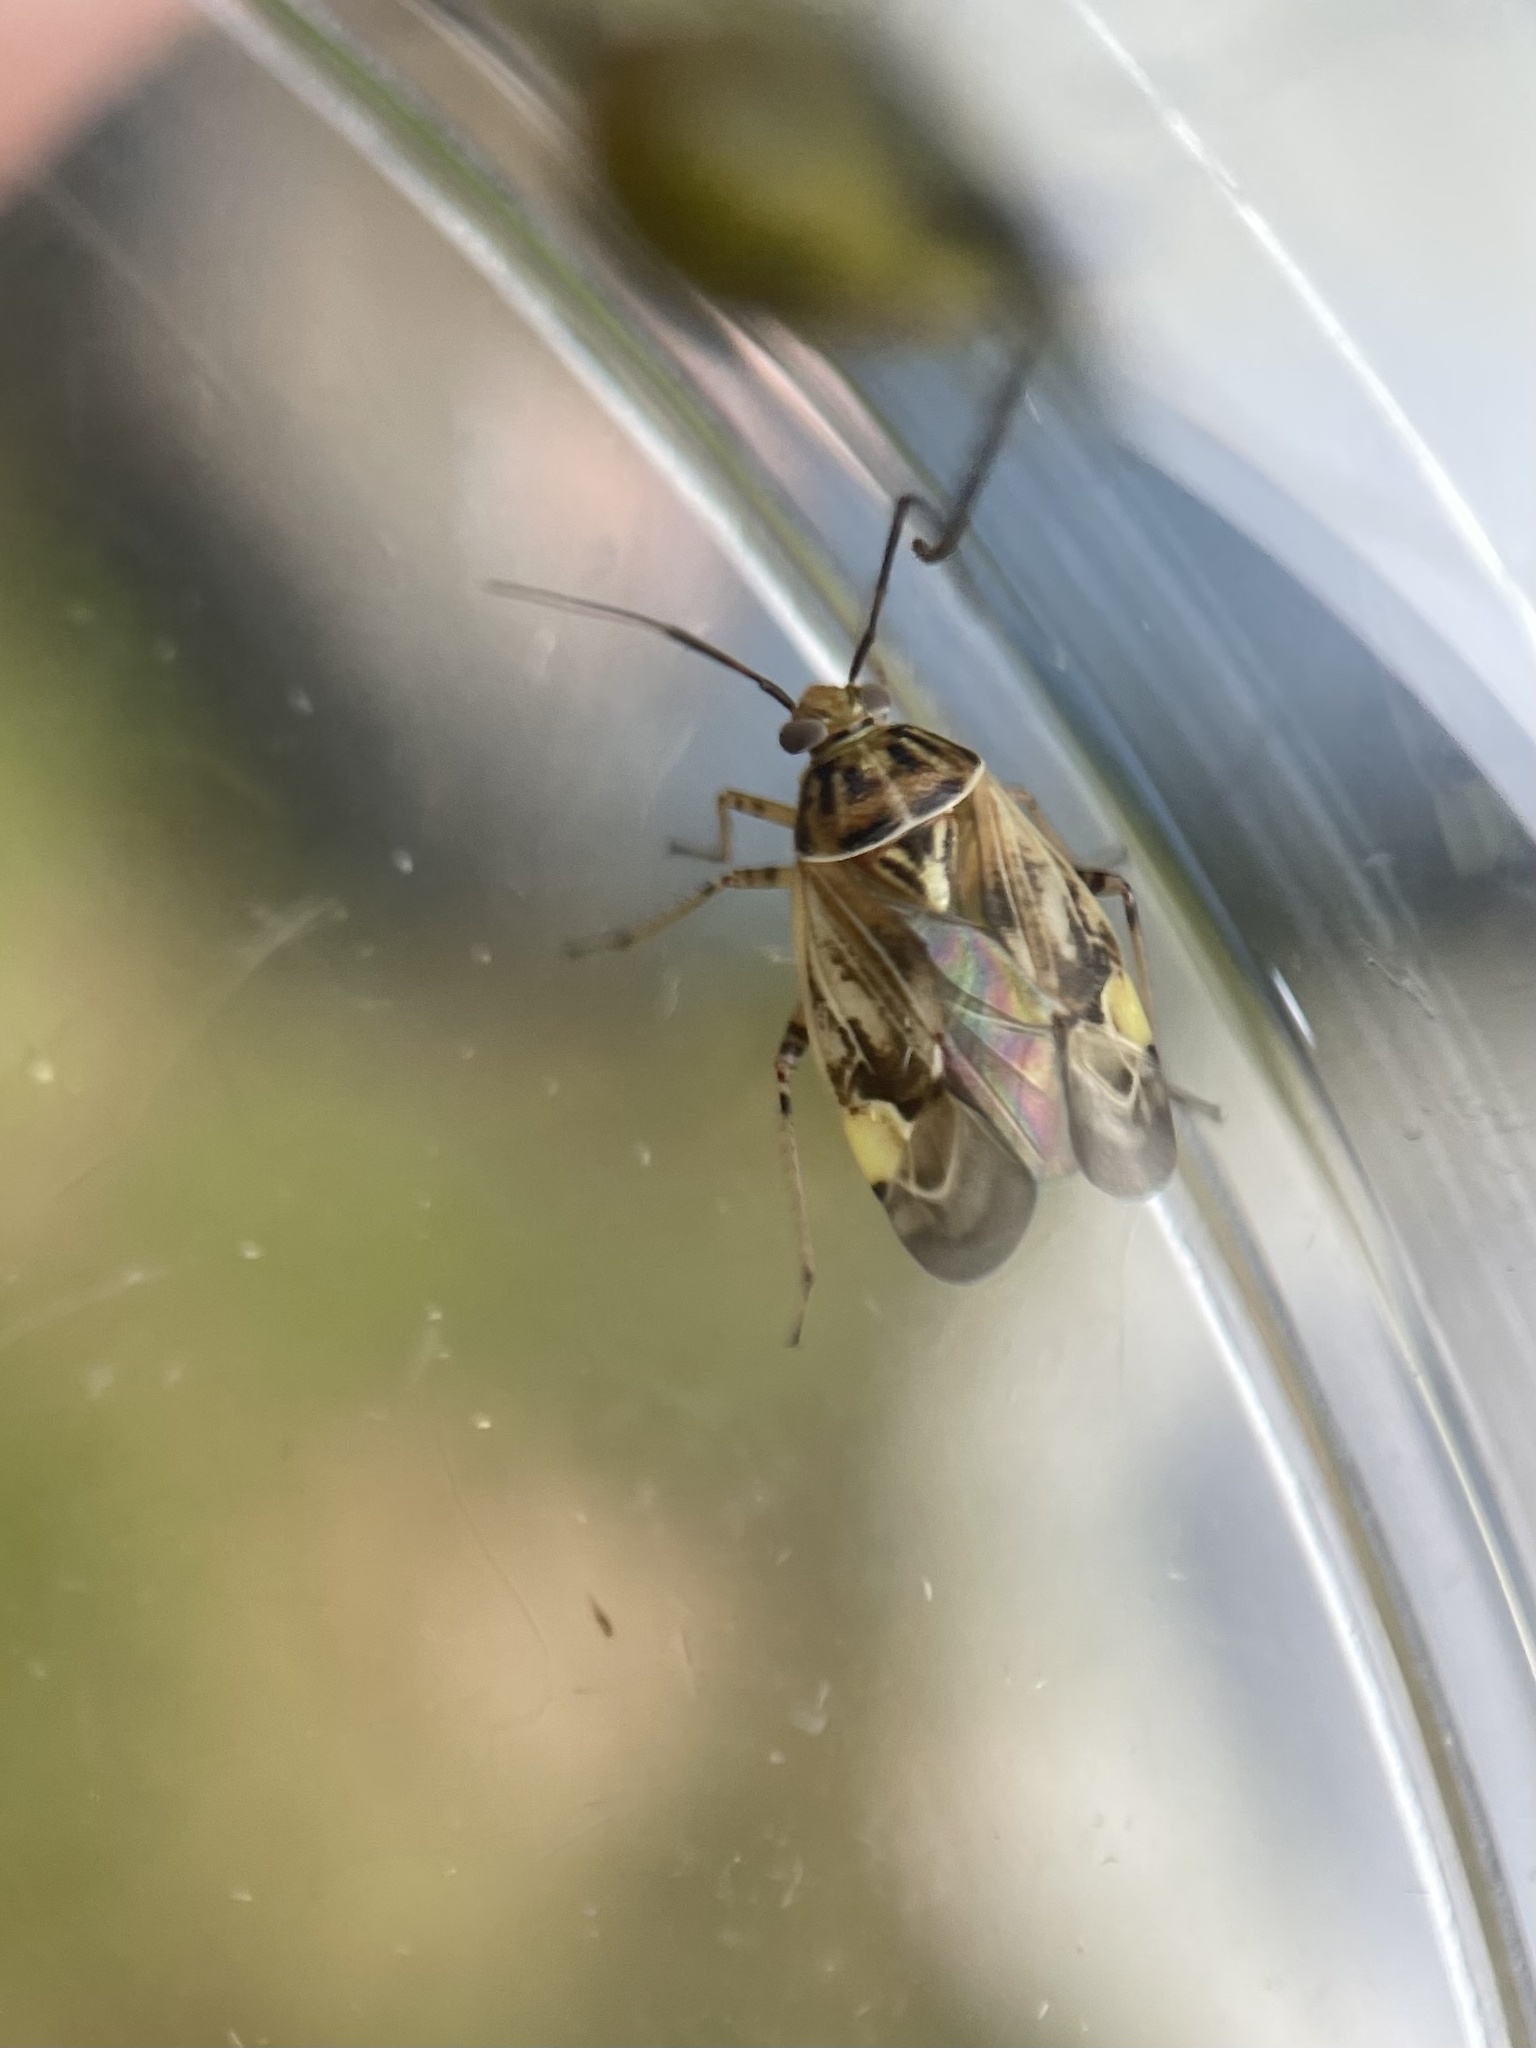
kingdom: Animalia
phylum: Arthropoda
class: Insecta
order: Hemiptera
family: Miridae
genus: Lygus
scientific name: Lygus lineolaris
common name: North american tarnished plant bug
